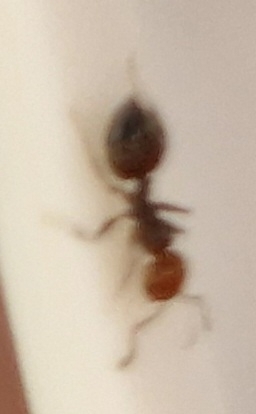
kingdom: Animalia
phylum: Arthropoda
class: Insecta
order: Hymenoptera
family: Formicidae
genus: Crematogaster
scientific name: Crematogaster scutellaris
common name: Fourmi du liège
